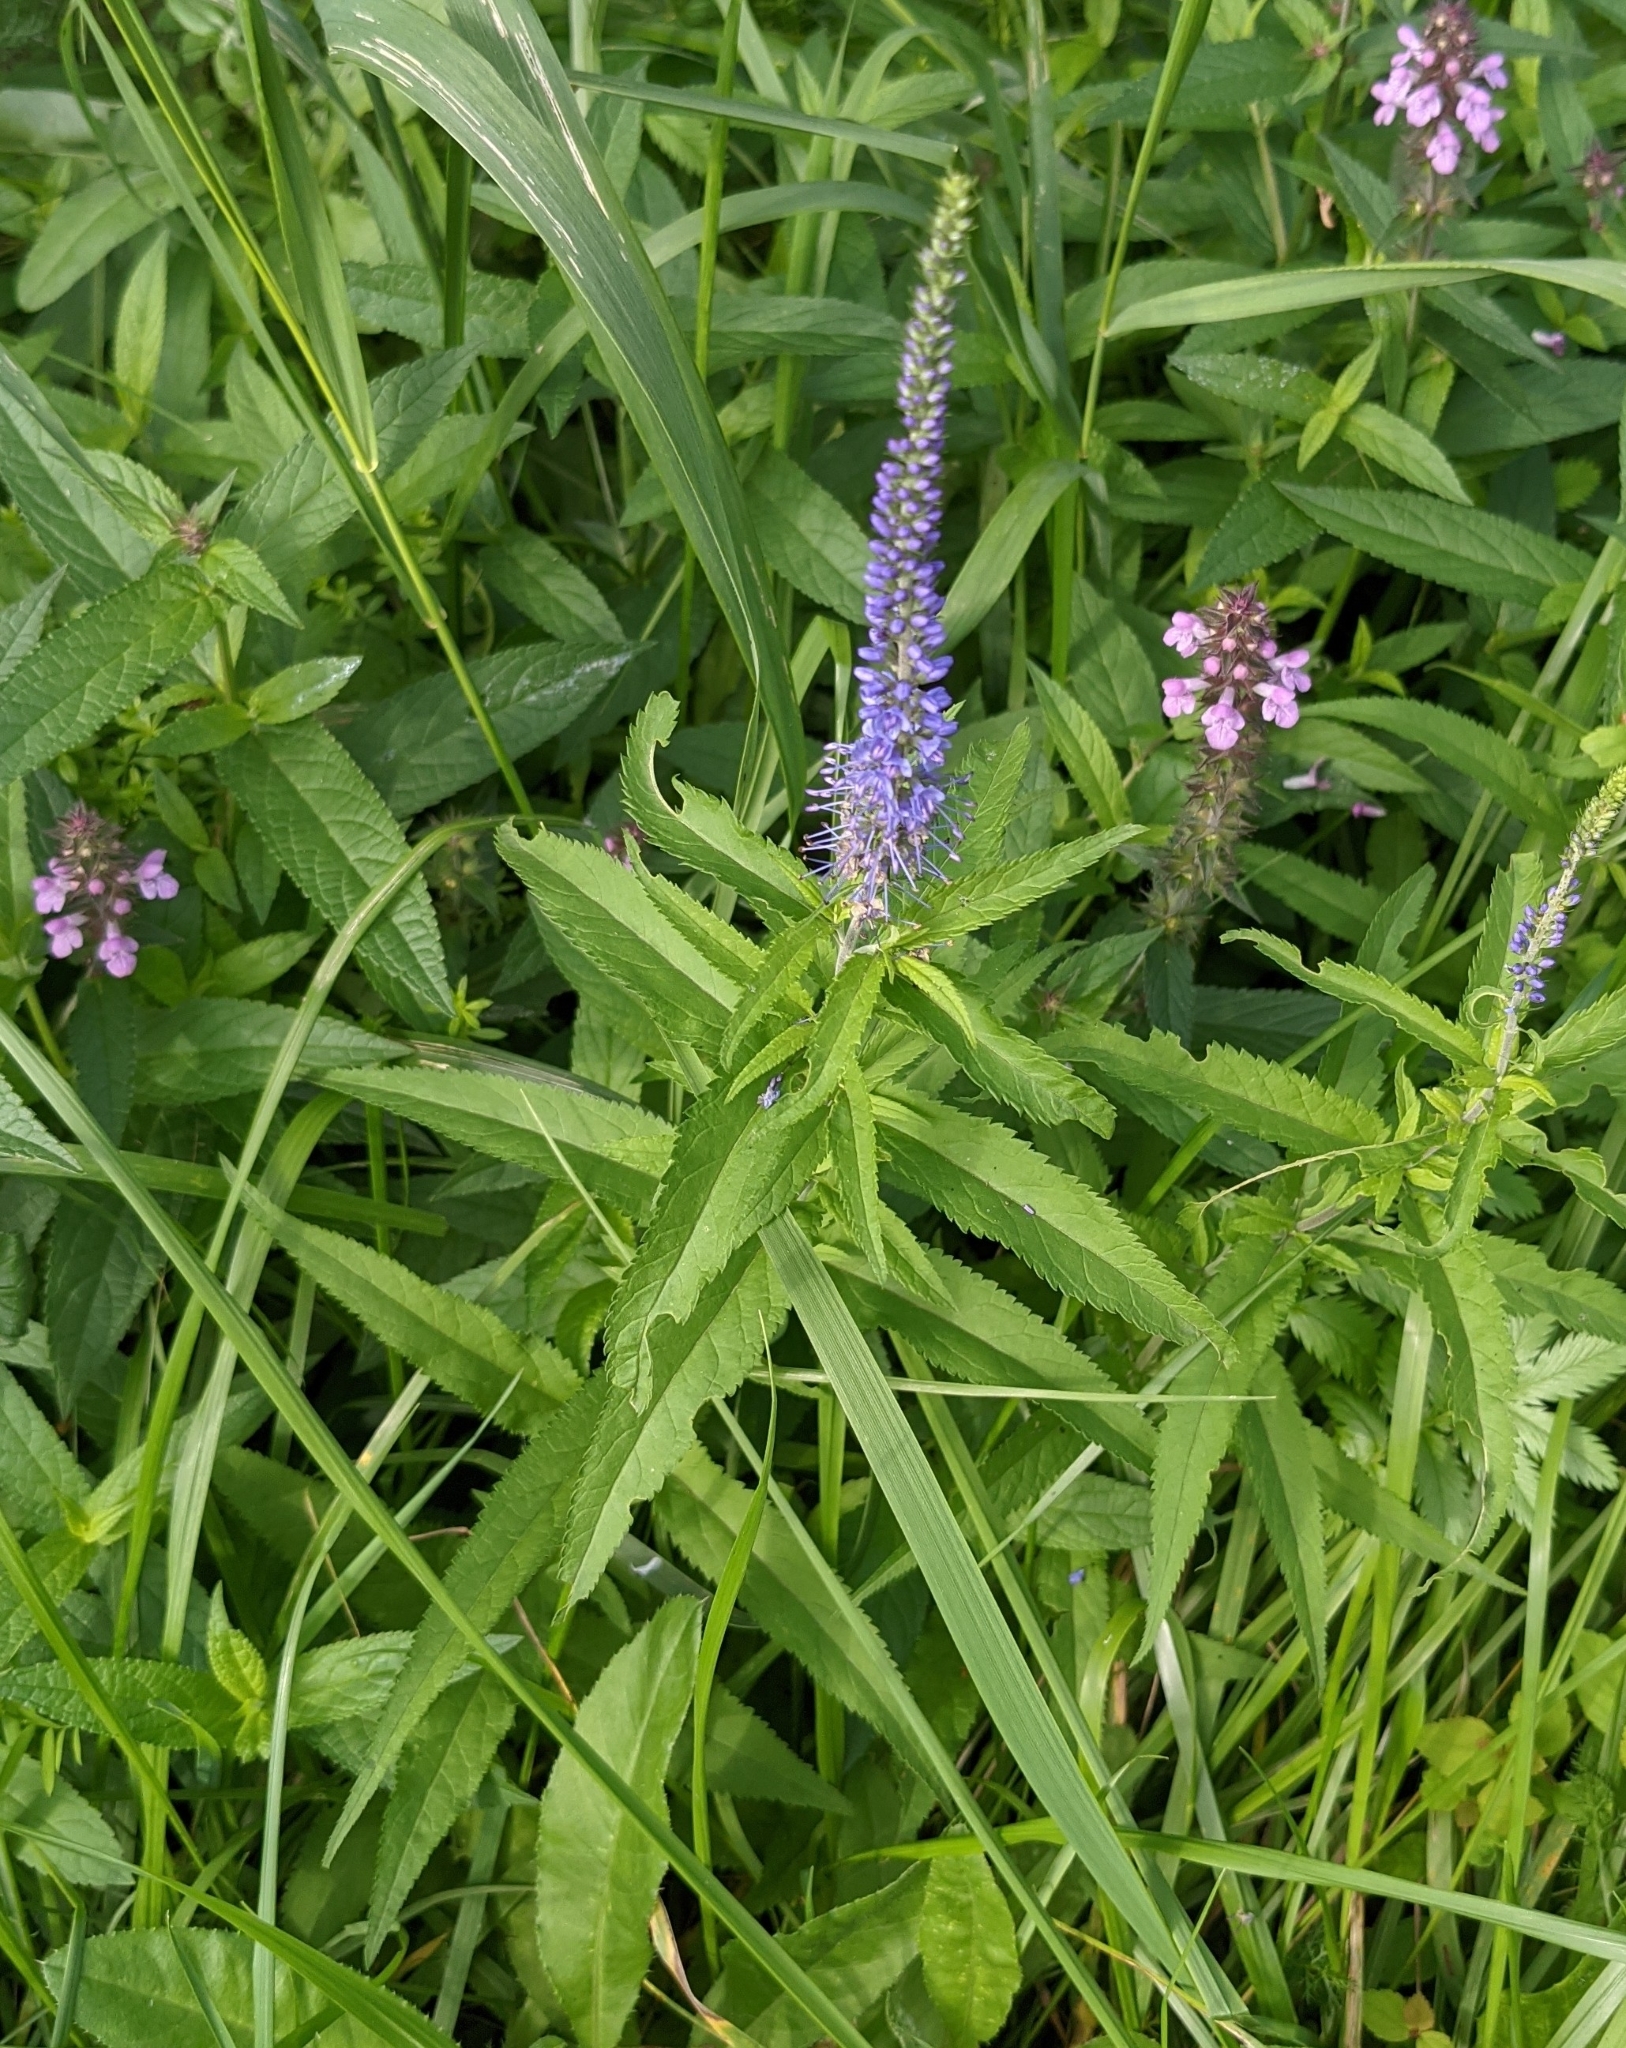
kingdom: Plantae
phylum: Tracheophyta
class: Magnoliopsida
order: Lamiales
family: Plantaginaceae
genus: Veronica
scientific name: Veronica longifolia
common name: Garden speedwell
